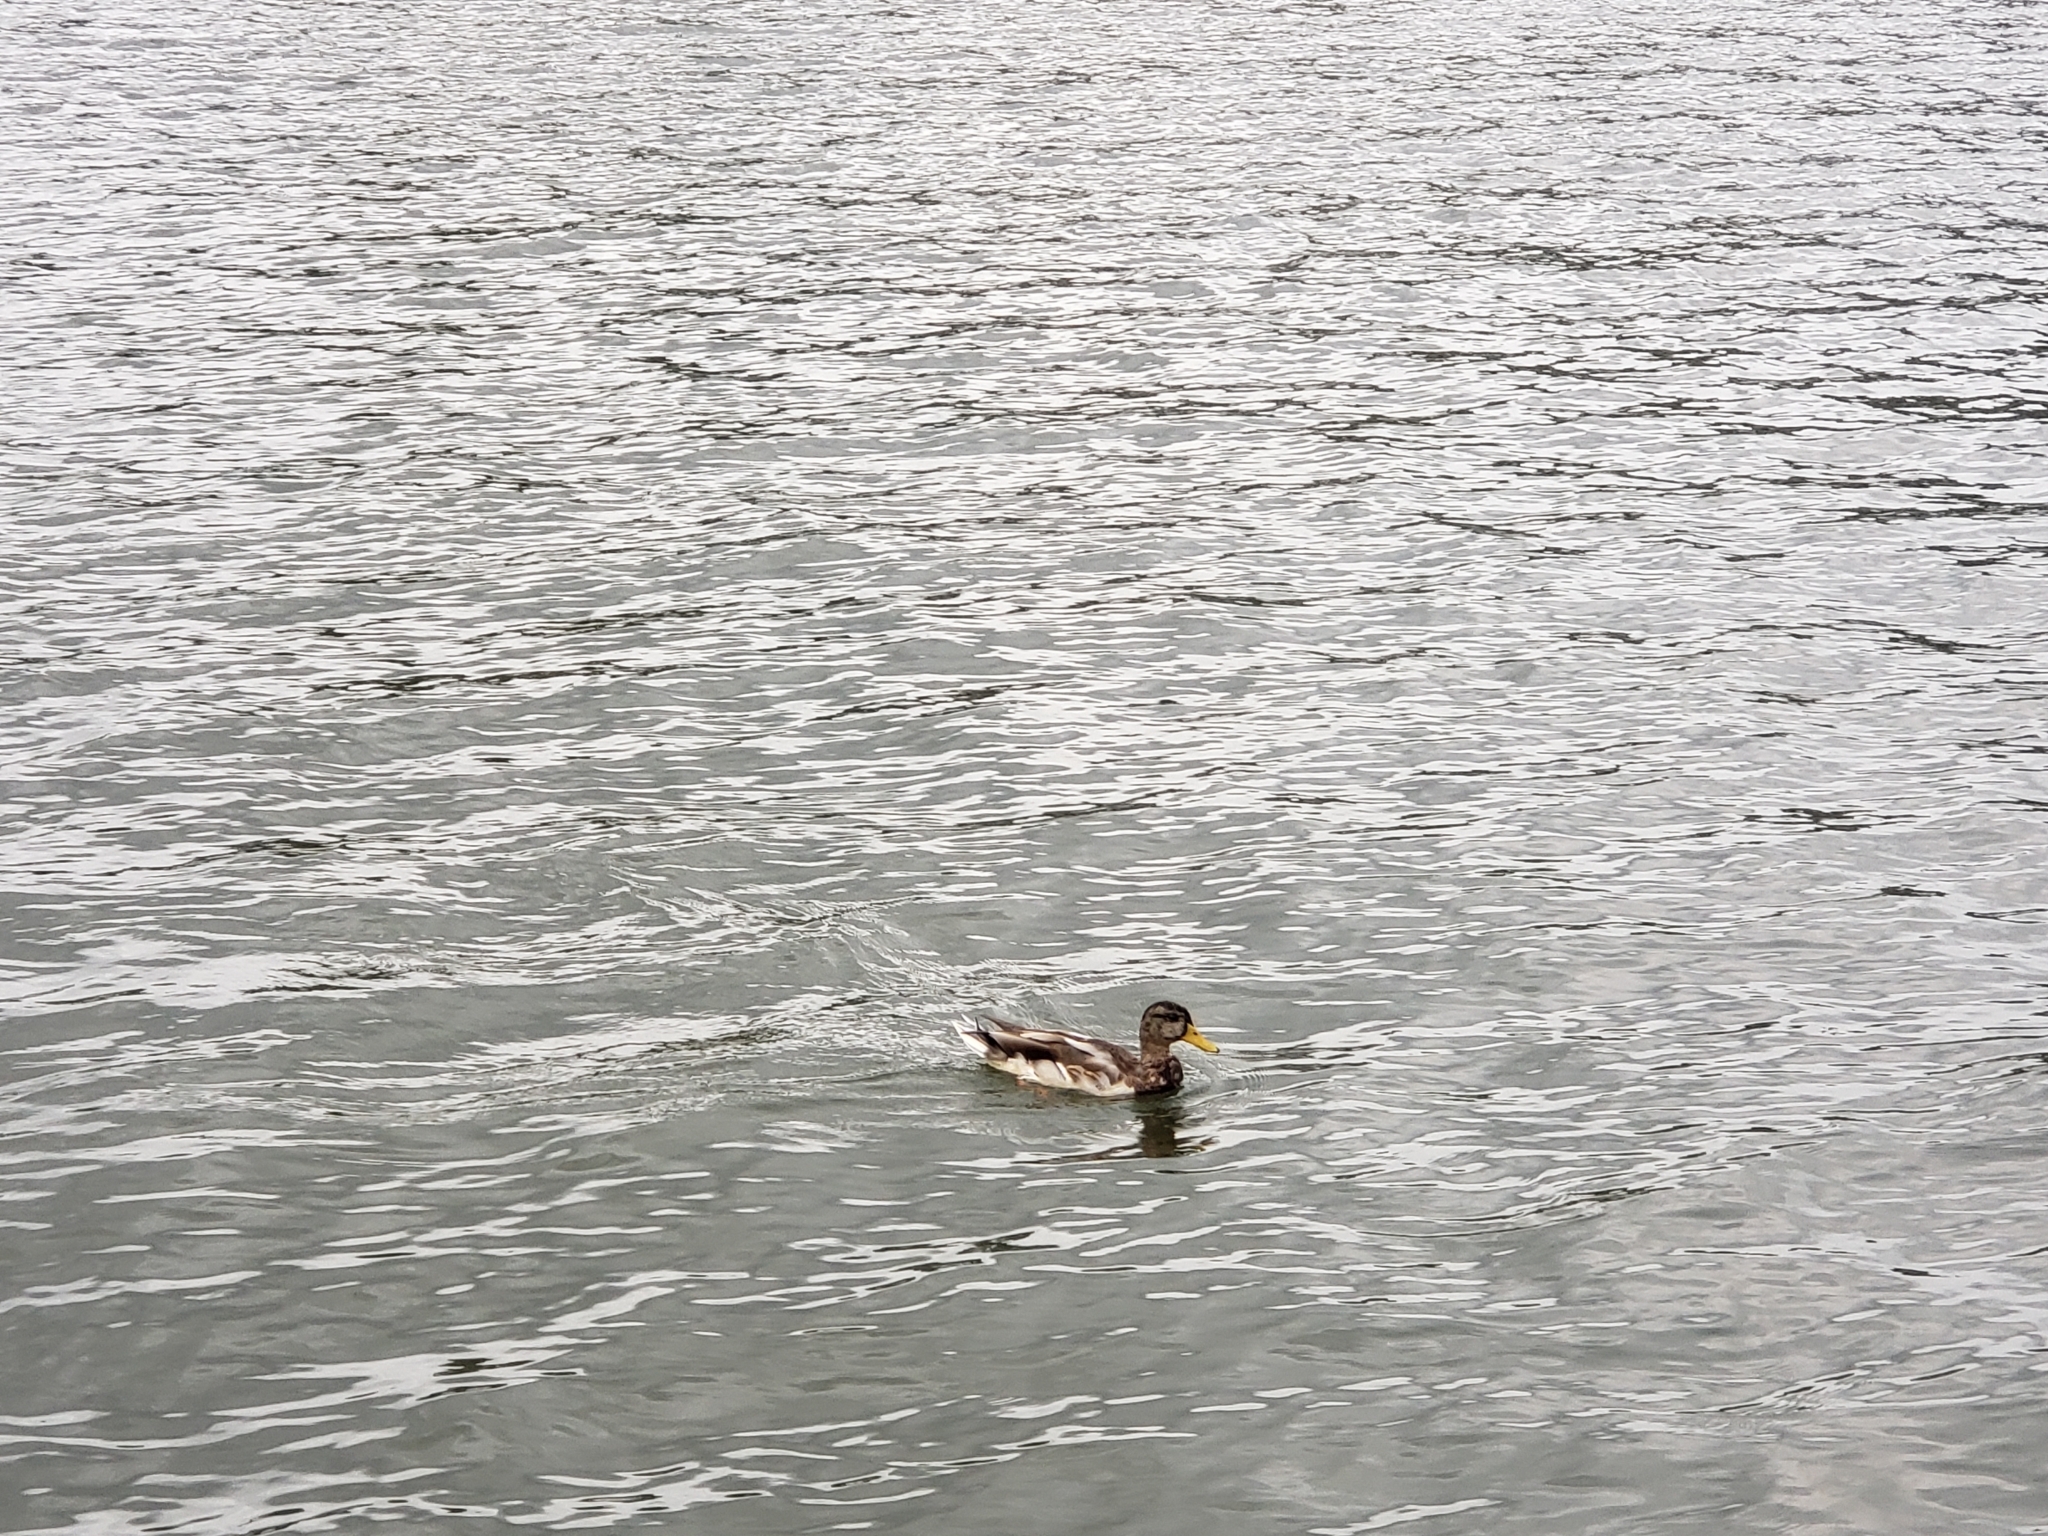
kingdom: Animalia
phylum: Chordata
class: Aves
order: Anseriformes
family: Anatidae
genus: Anas
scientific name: Anas platyrhynchos
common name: Mallard
